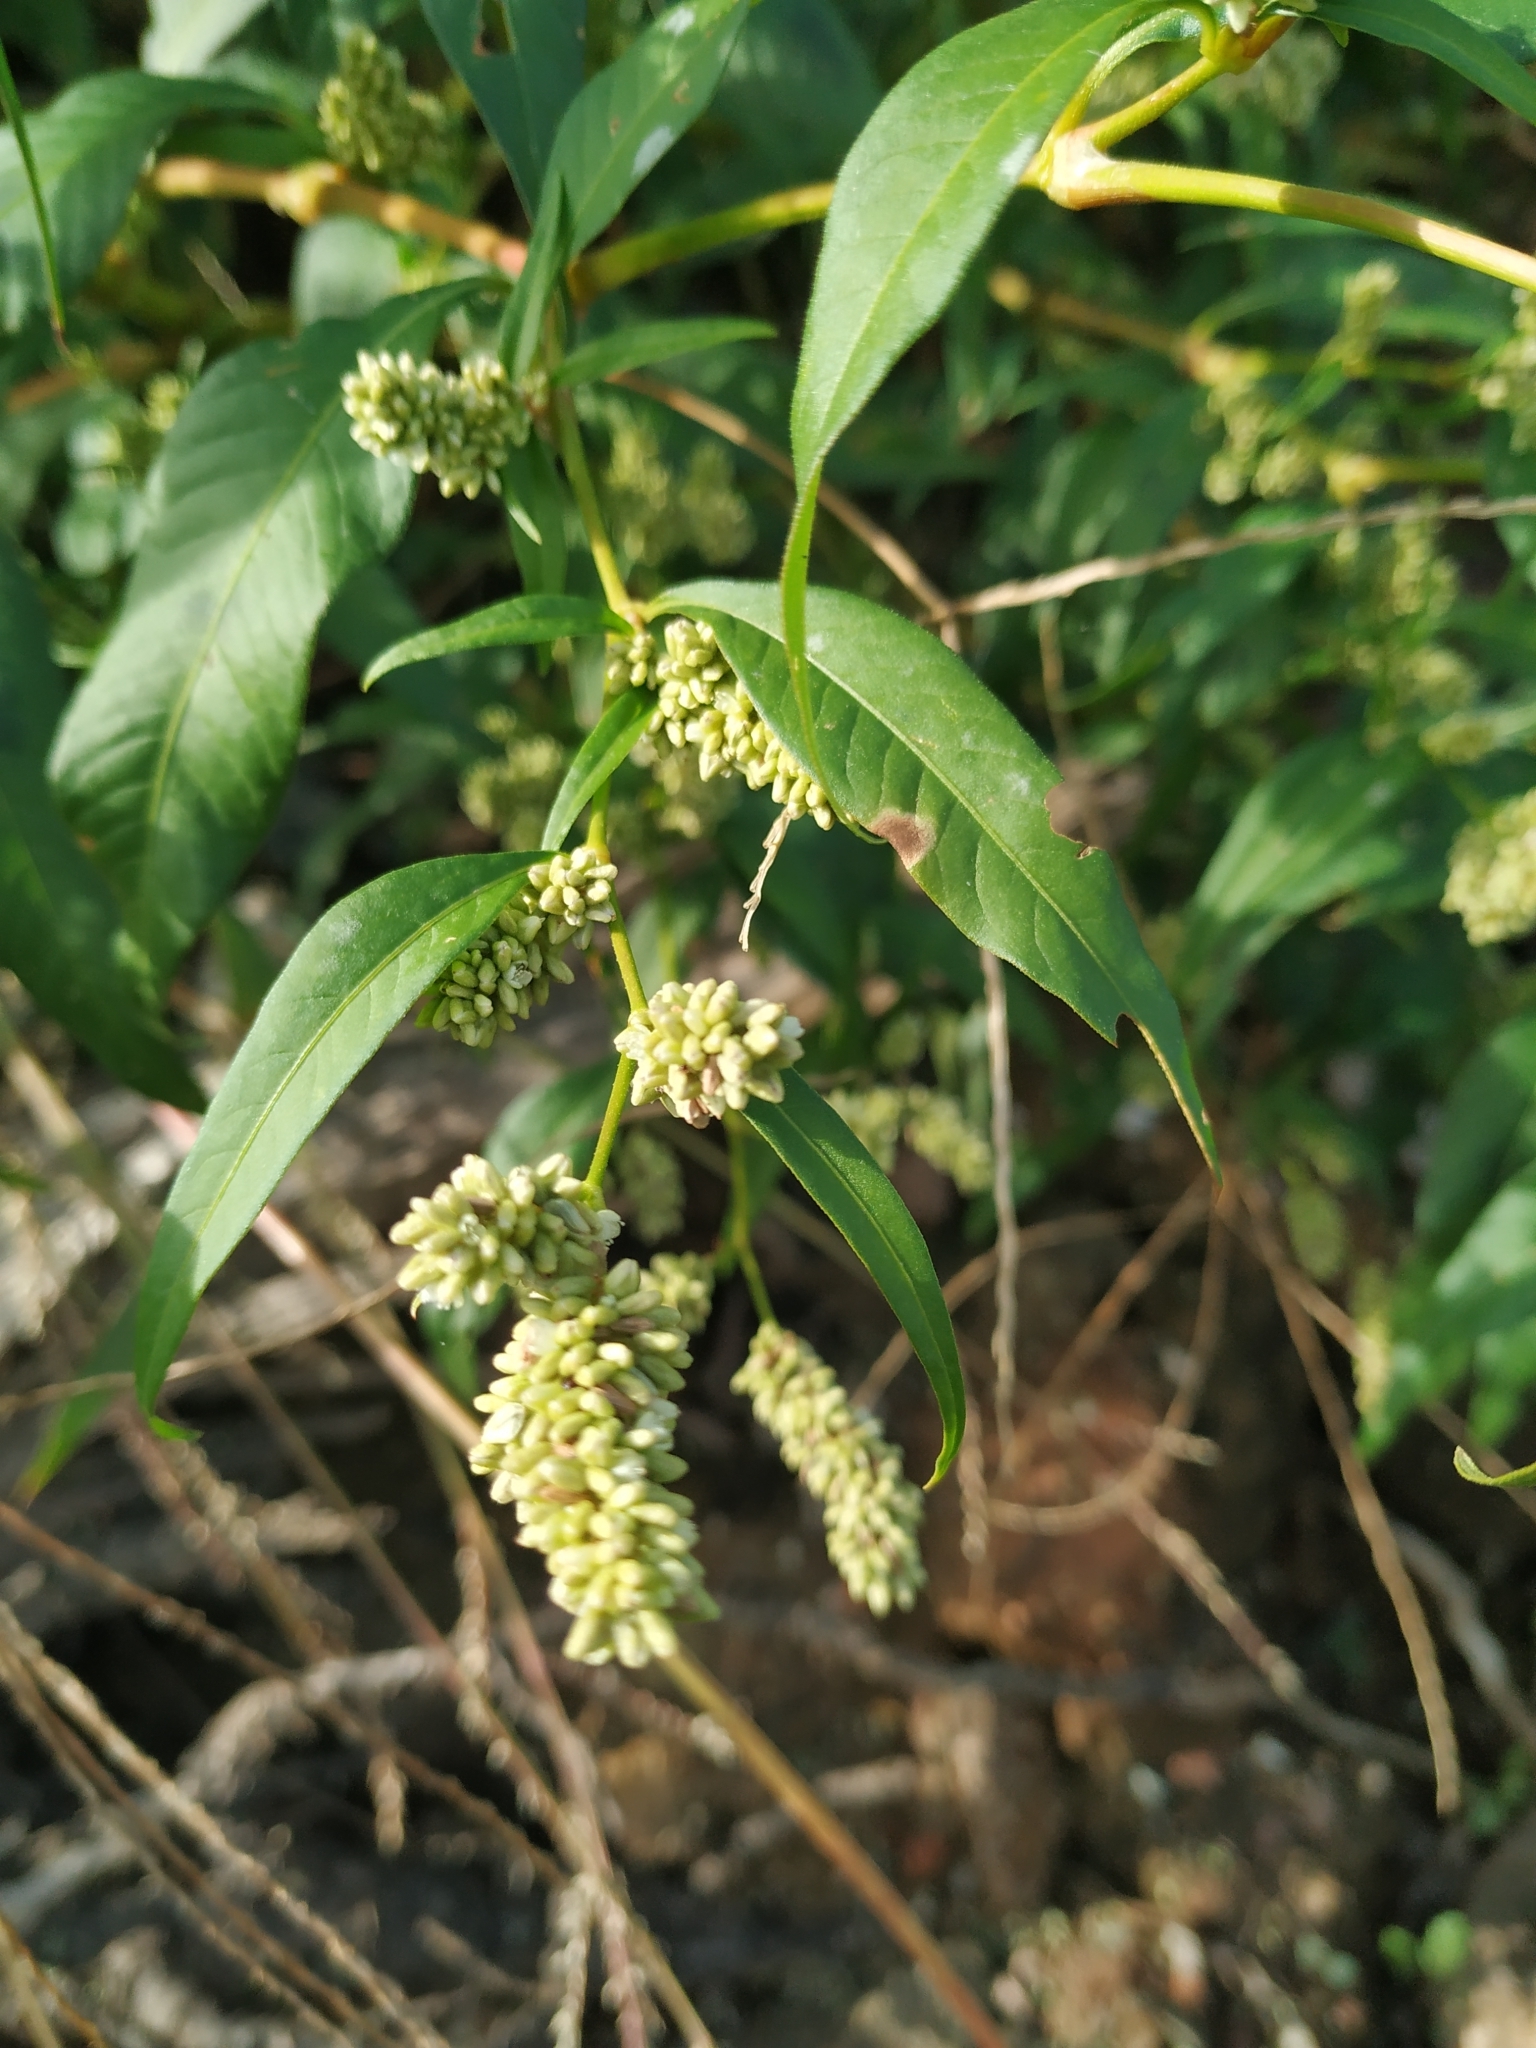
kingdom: Plantae
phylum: Tracheophyta
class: Magnoliopsida
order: Caryophyllales
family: Polygonaceae
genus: Persicaria
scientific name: Persicaria lapathifolia
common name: Curlytop knotweed
